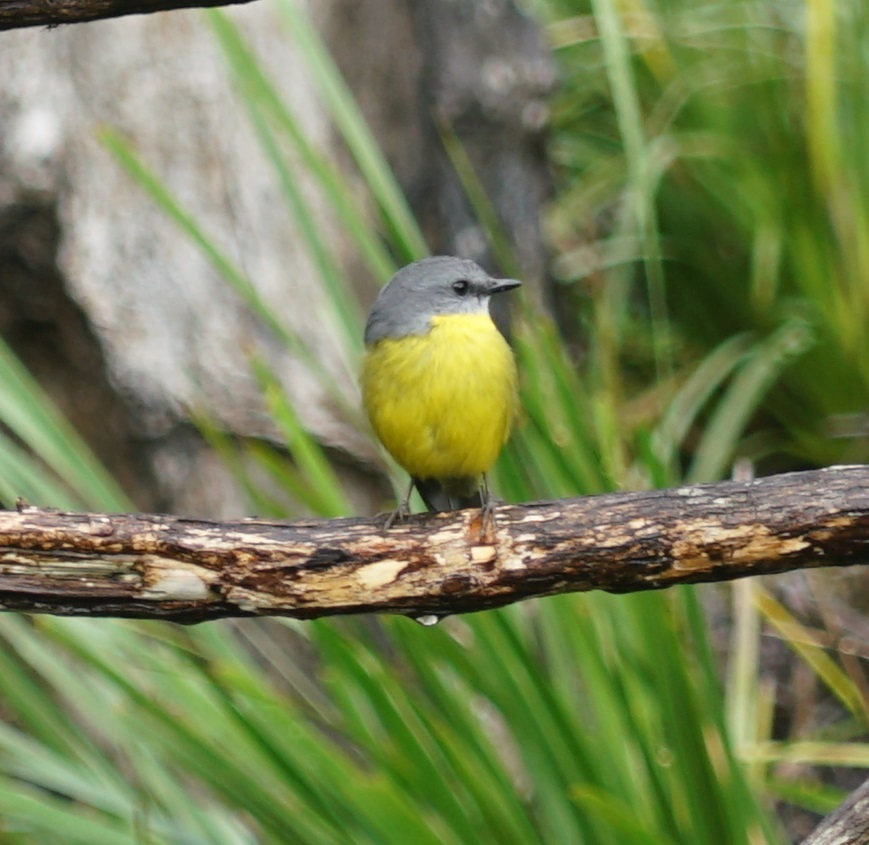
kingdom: Animalia
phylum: Chordata
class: Aves
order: Passeriformes
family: Petroicidae
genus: Eopsaltria
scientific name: Eopsaltria australis
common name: Eastern yellow robin
